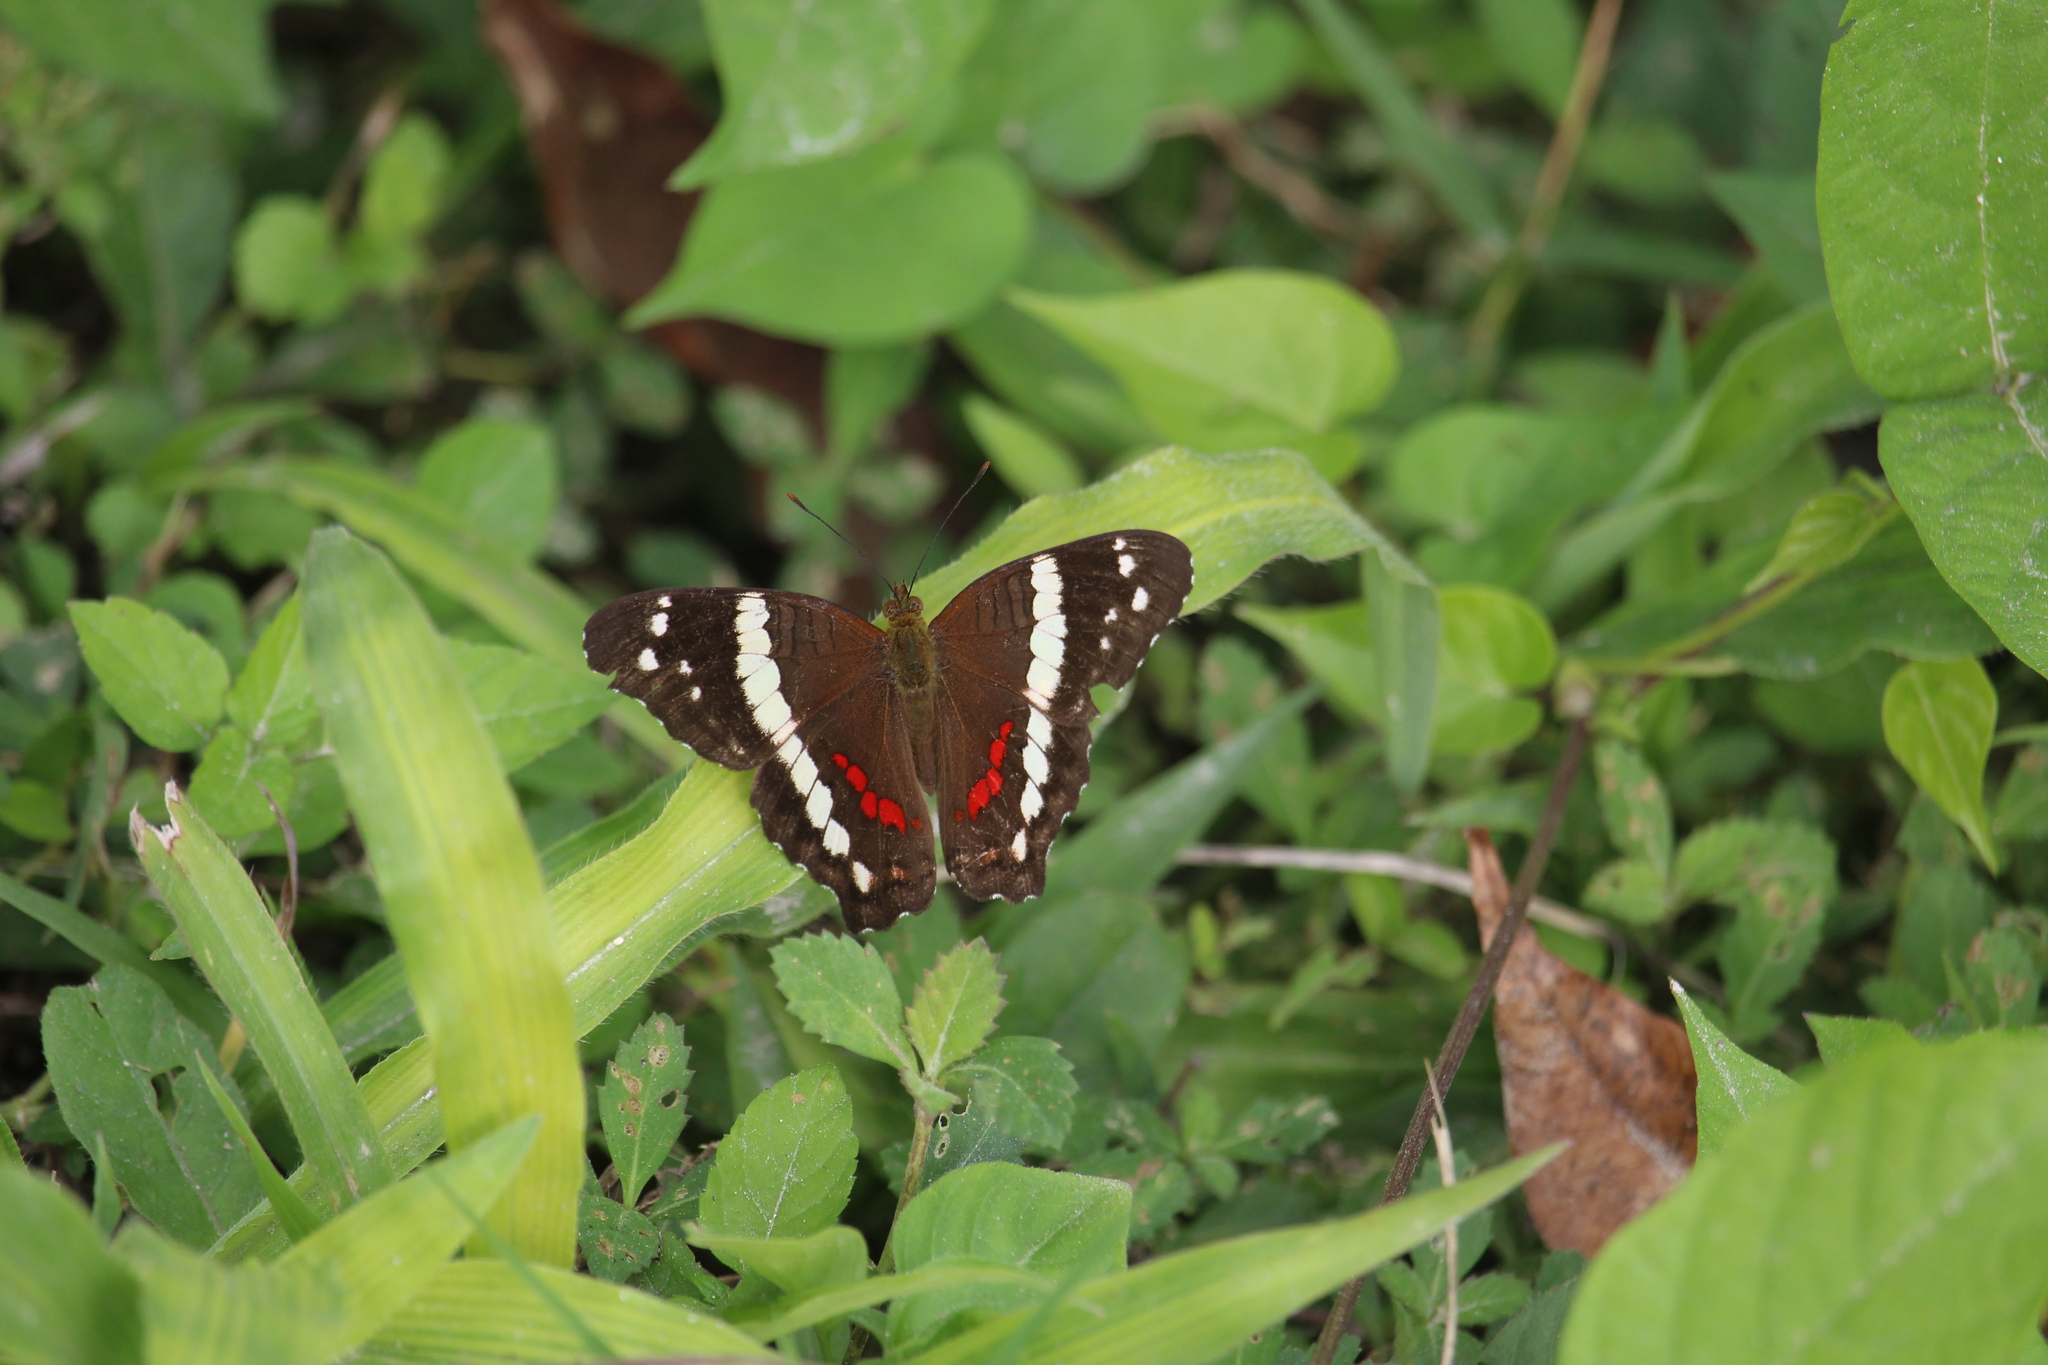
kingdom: Animalia
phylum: Arthropoda
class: Insecta
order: Lepidoptera
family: Nymphalidae
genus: Anartia
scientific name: Anartia fatima
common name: Banded peacock
